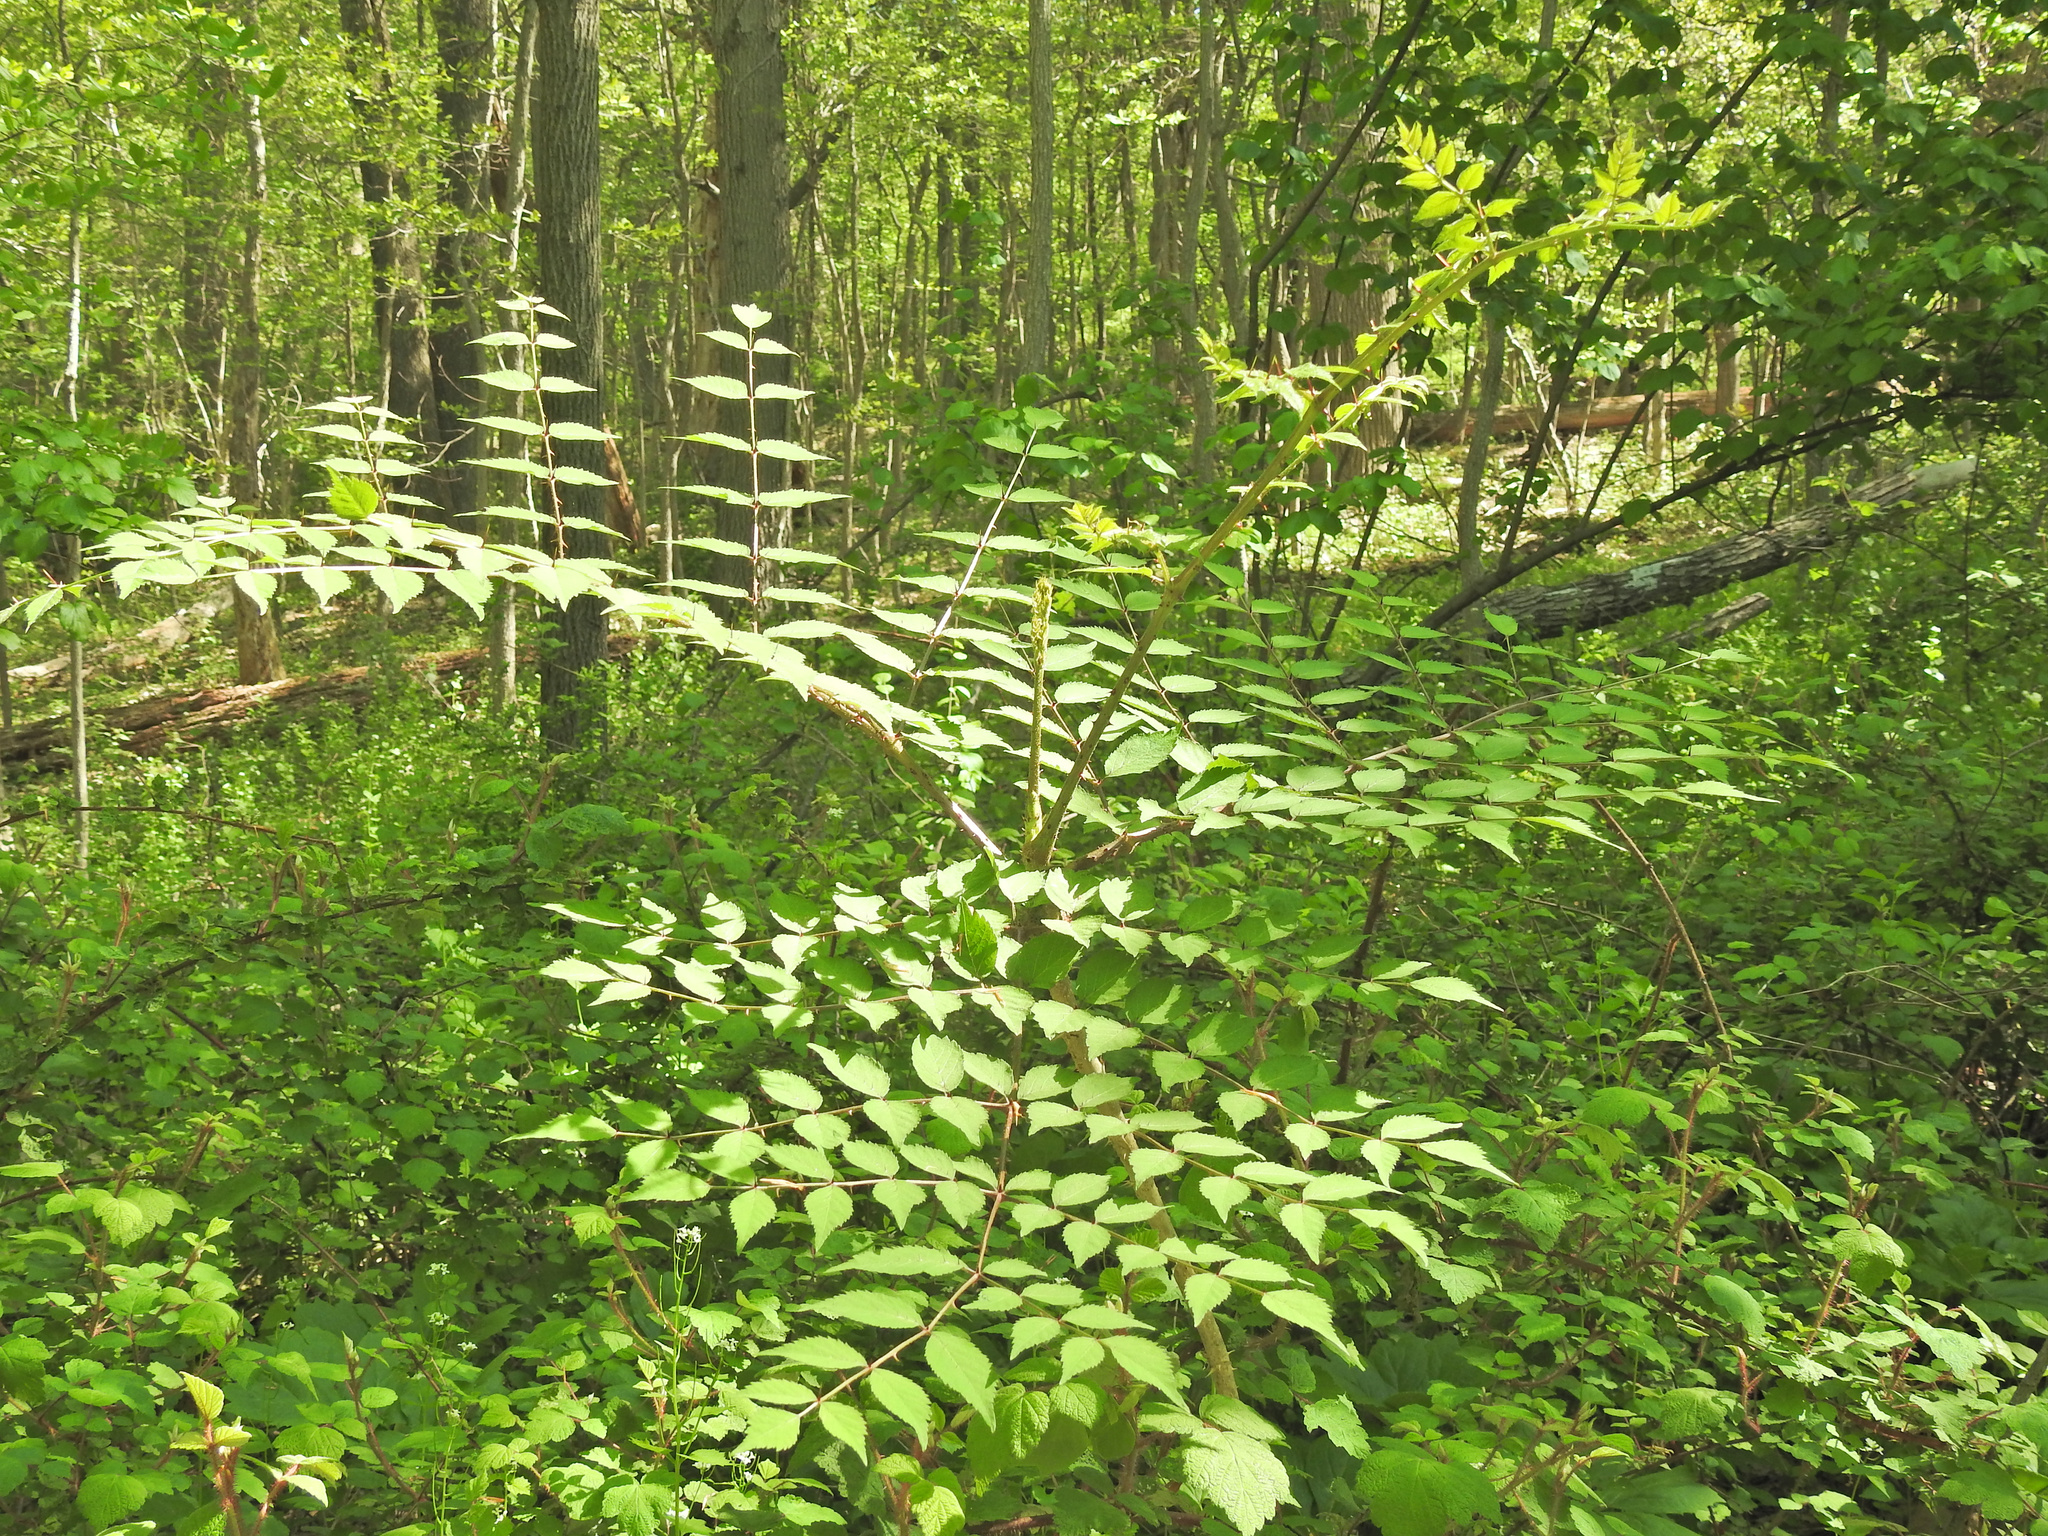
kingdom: Plantae
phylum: Tracheophyta
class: Magnoliopsida
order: Apiales
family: Araliaceae
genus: Aralia
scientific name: Aralia elata
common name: Japanese angelica-tree
